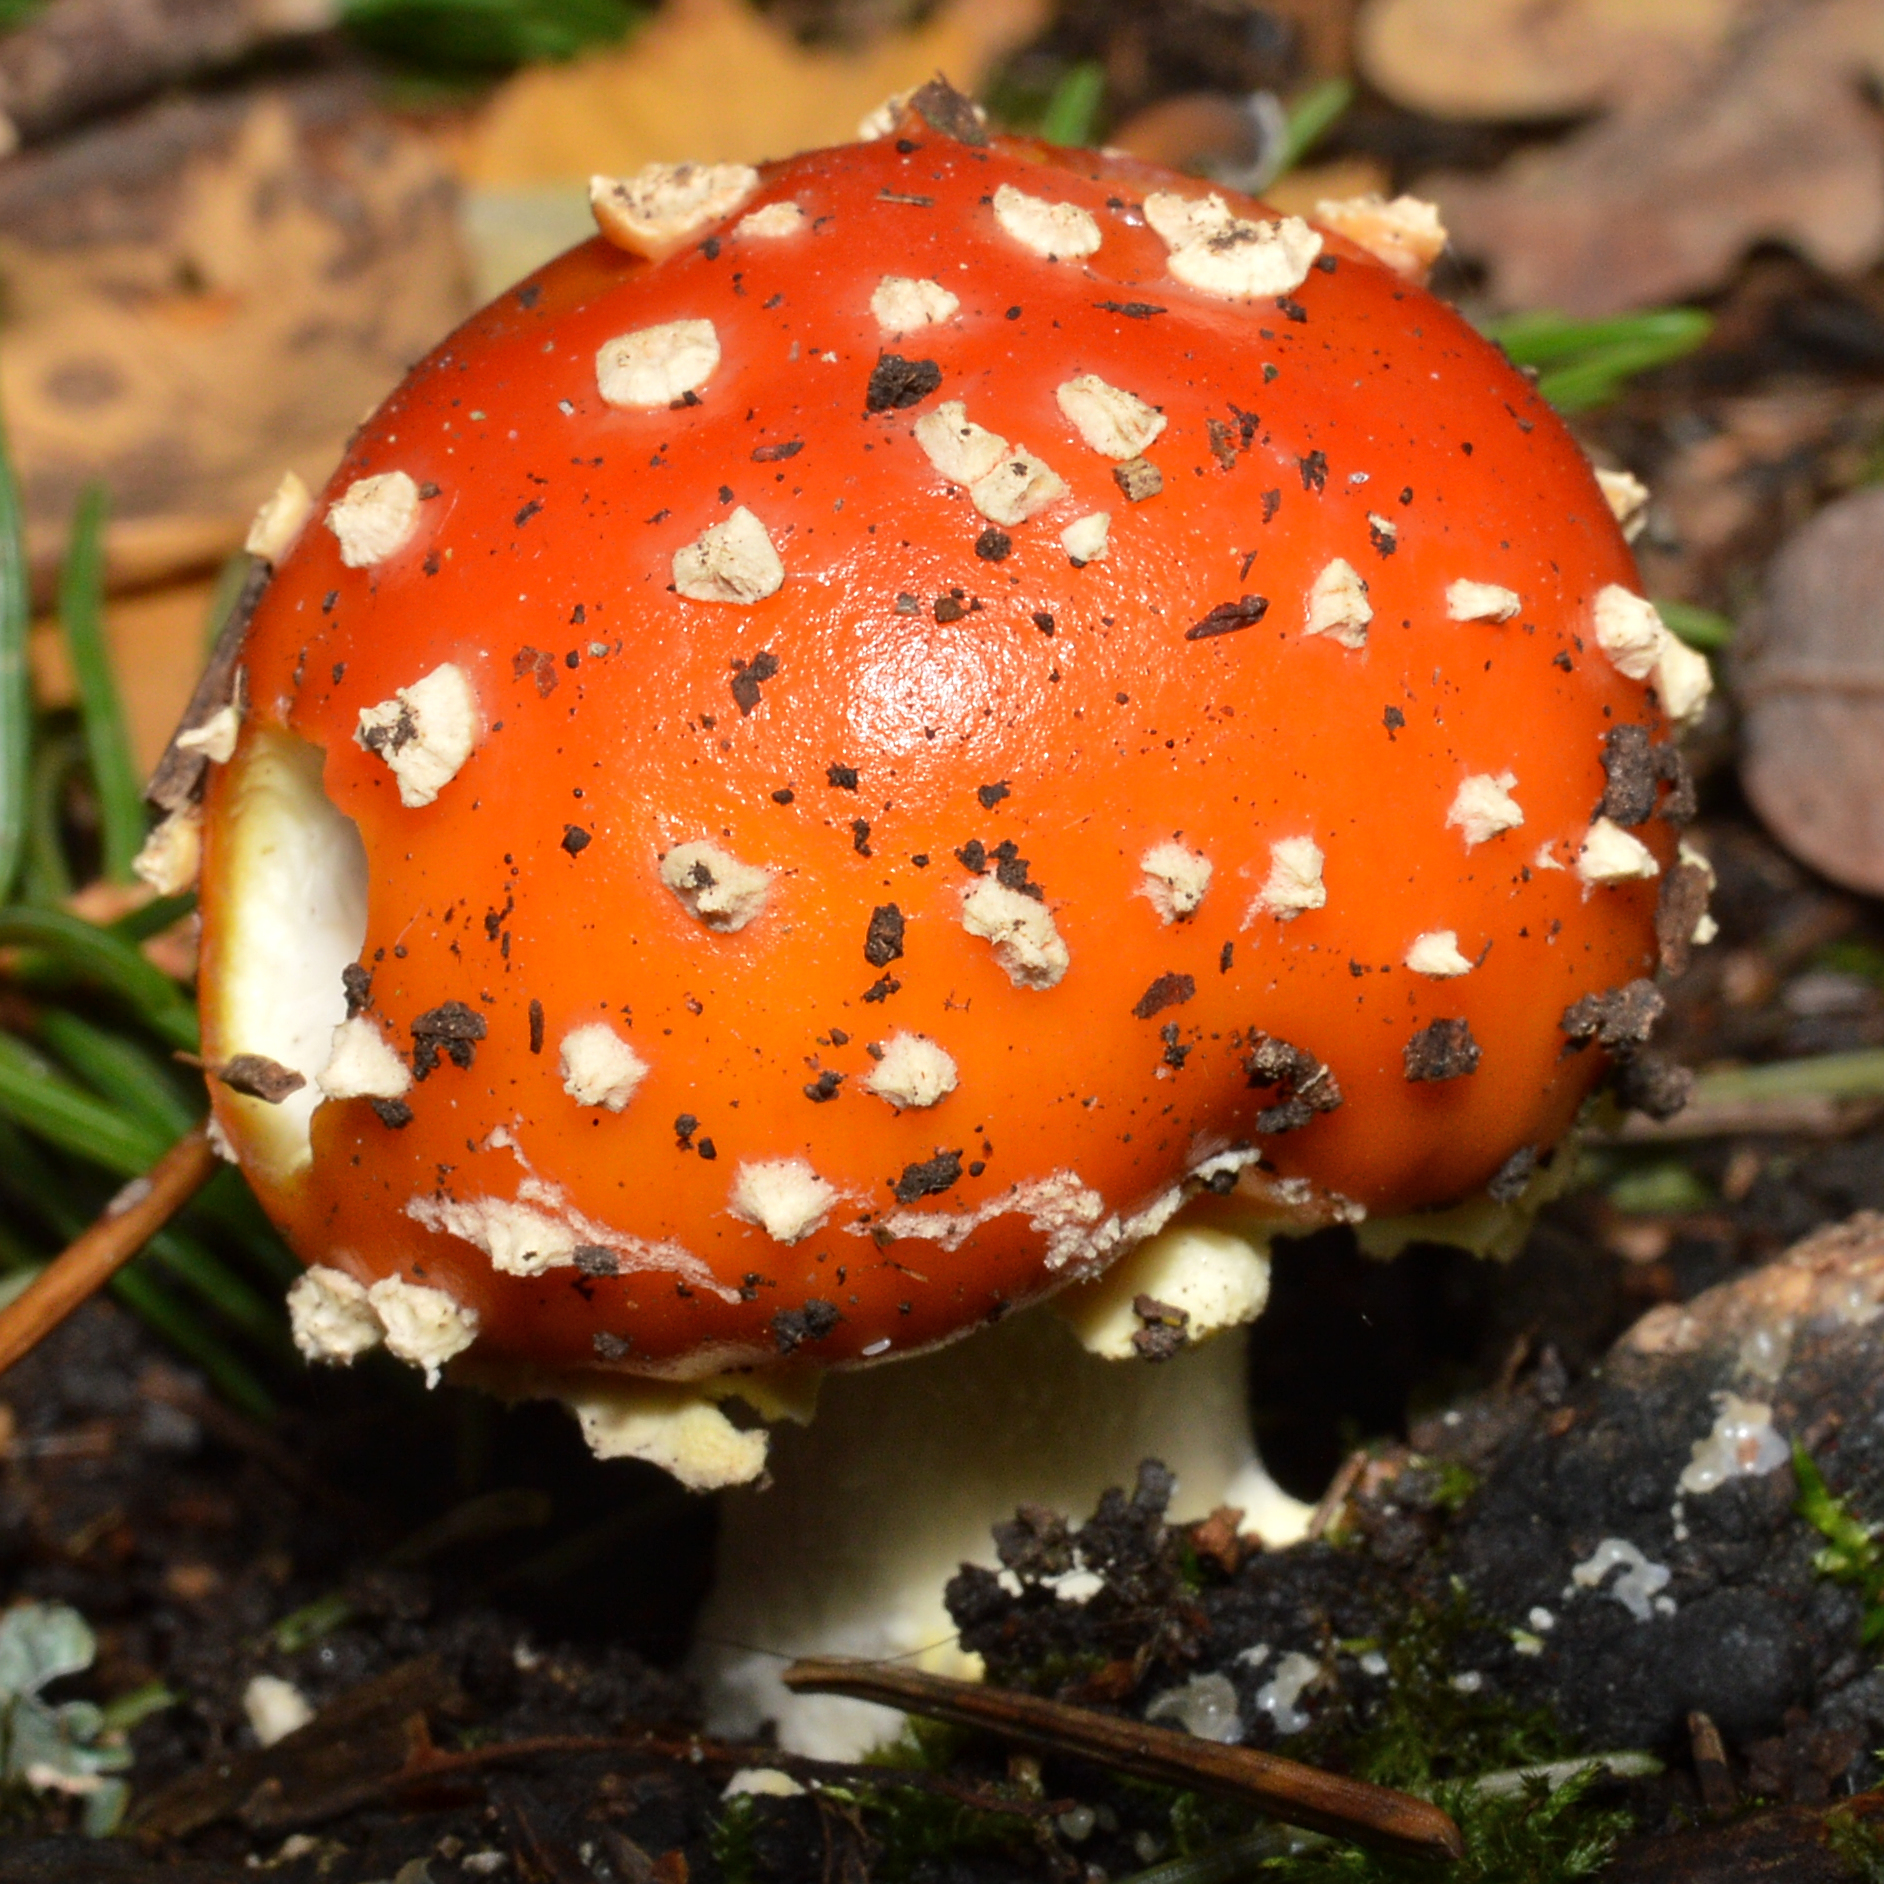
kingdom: Fungi
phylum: Basidiomycota
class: Agaricomycetes
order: Agaricales
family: Amanitaceae
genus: Amanita
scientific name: Amanita muscaria
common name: Fly agaric
